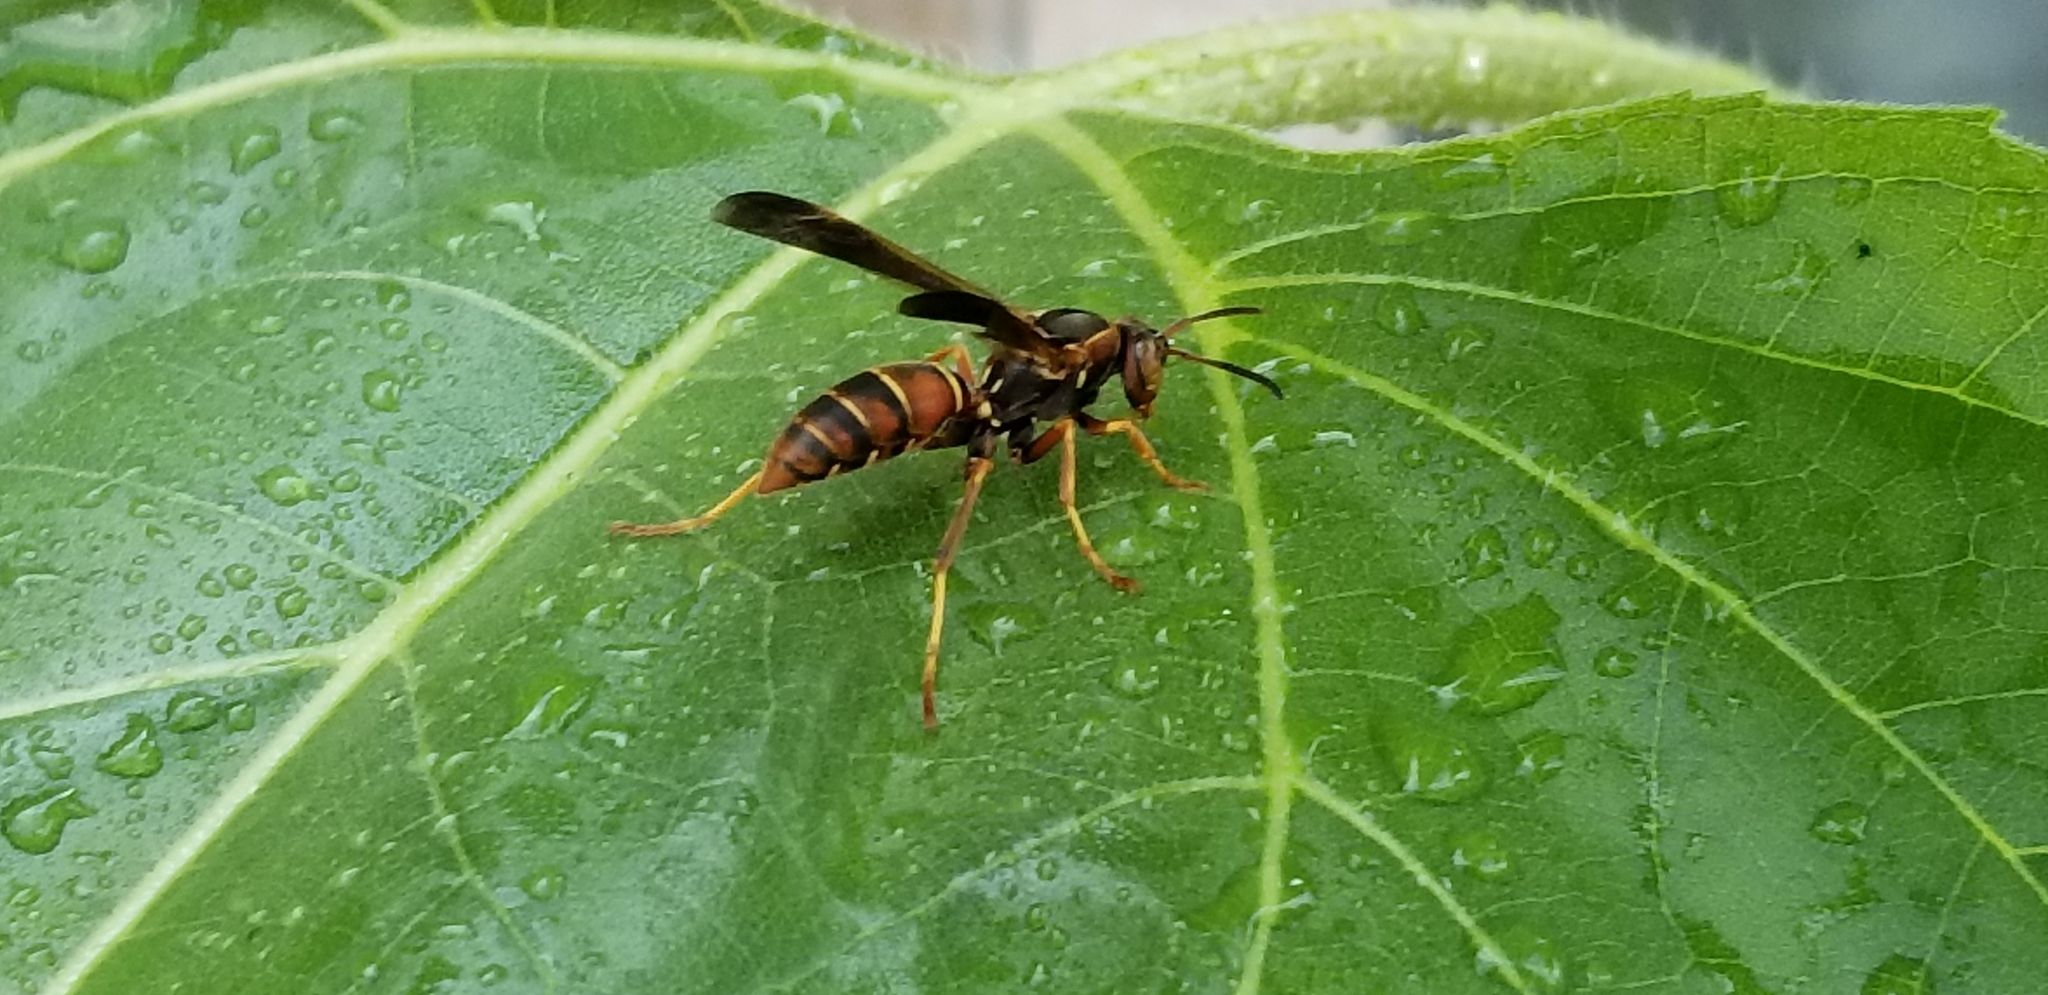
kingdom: Animalia
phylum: Arthropoda
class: Insecta
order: Hymenoptera
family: Eumenidae
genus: Polistes
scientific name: Polistes fuscatus
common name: Dark paper wasp
